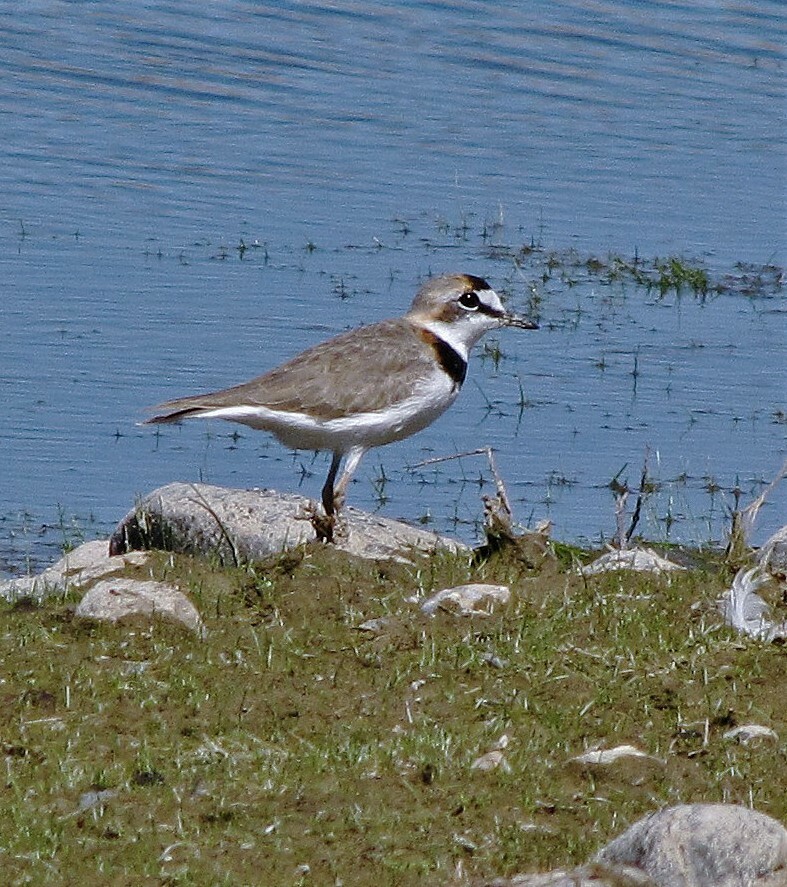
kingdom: Animalia
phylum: Chordata
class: Aves
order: Charadriiformes
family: Charadriidae
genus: Anarhynchus
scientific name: Anarhynchus
